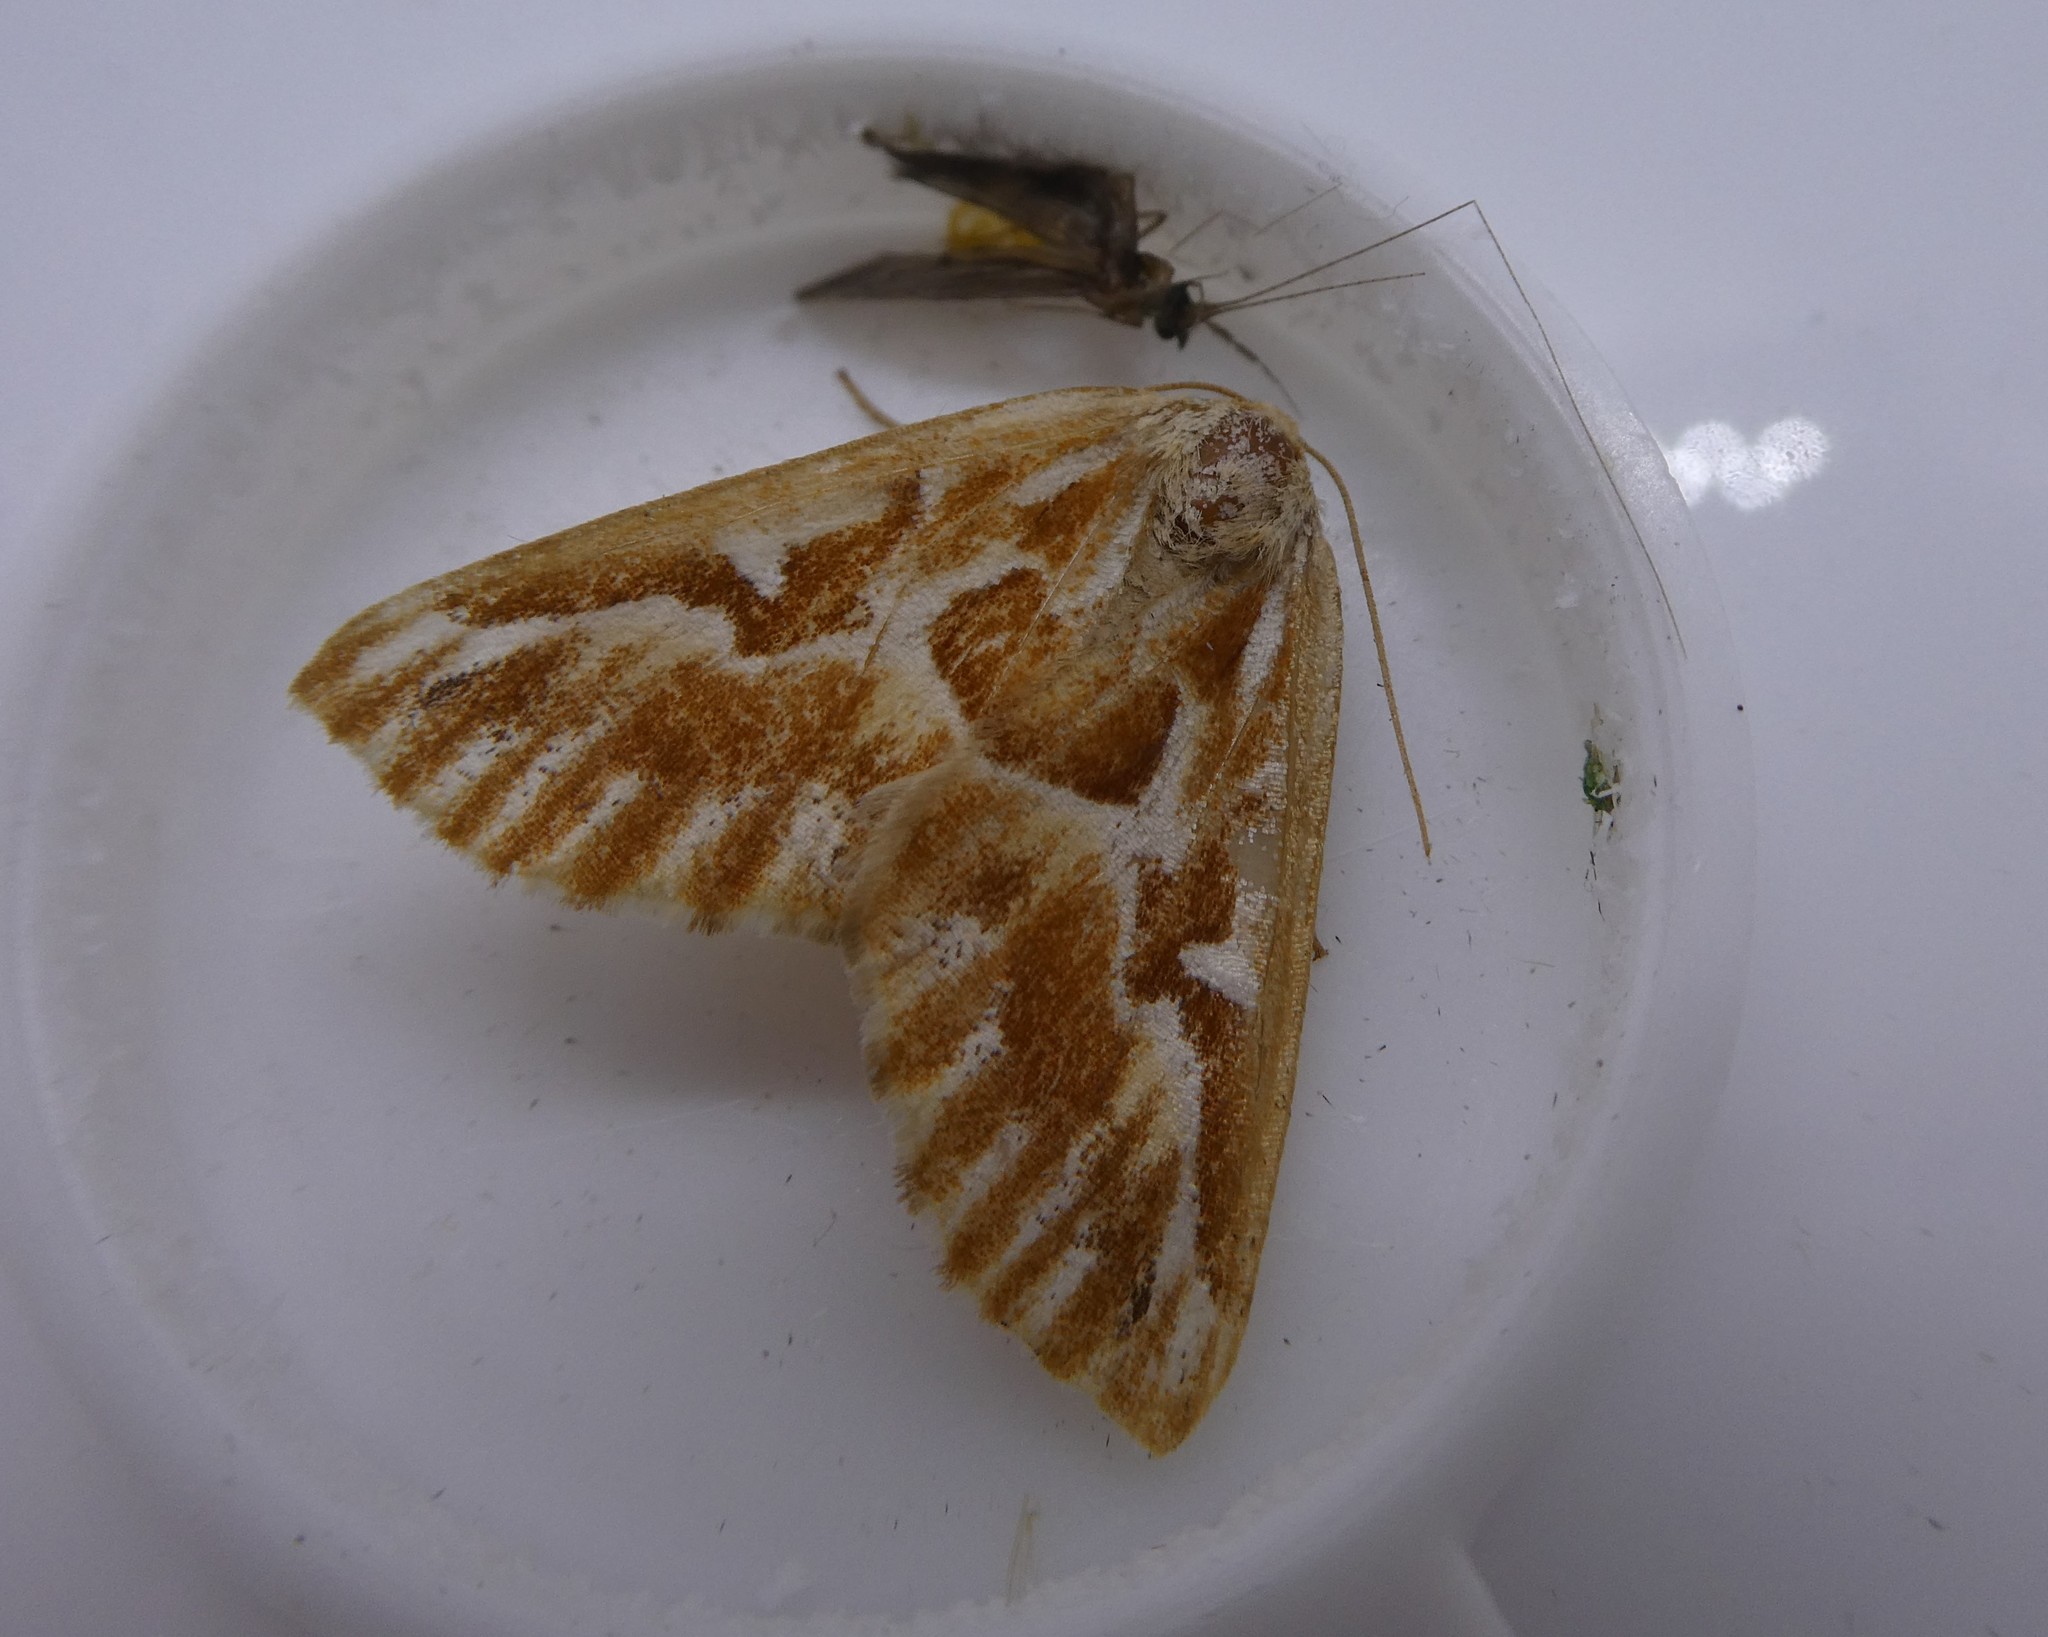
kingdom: Animalia
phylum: Arthropoda
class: Insecta
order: Lepidoptera
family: Geometridae
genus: Caripeta
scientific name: Caripeta piniata
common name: Northern pine looper moth
